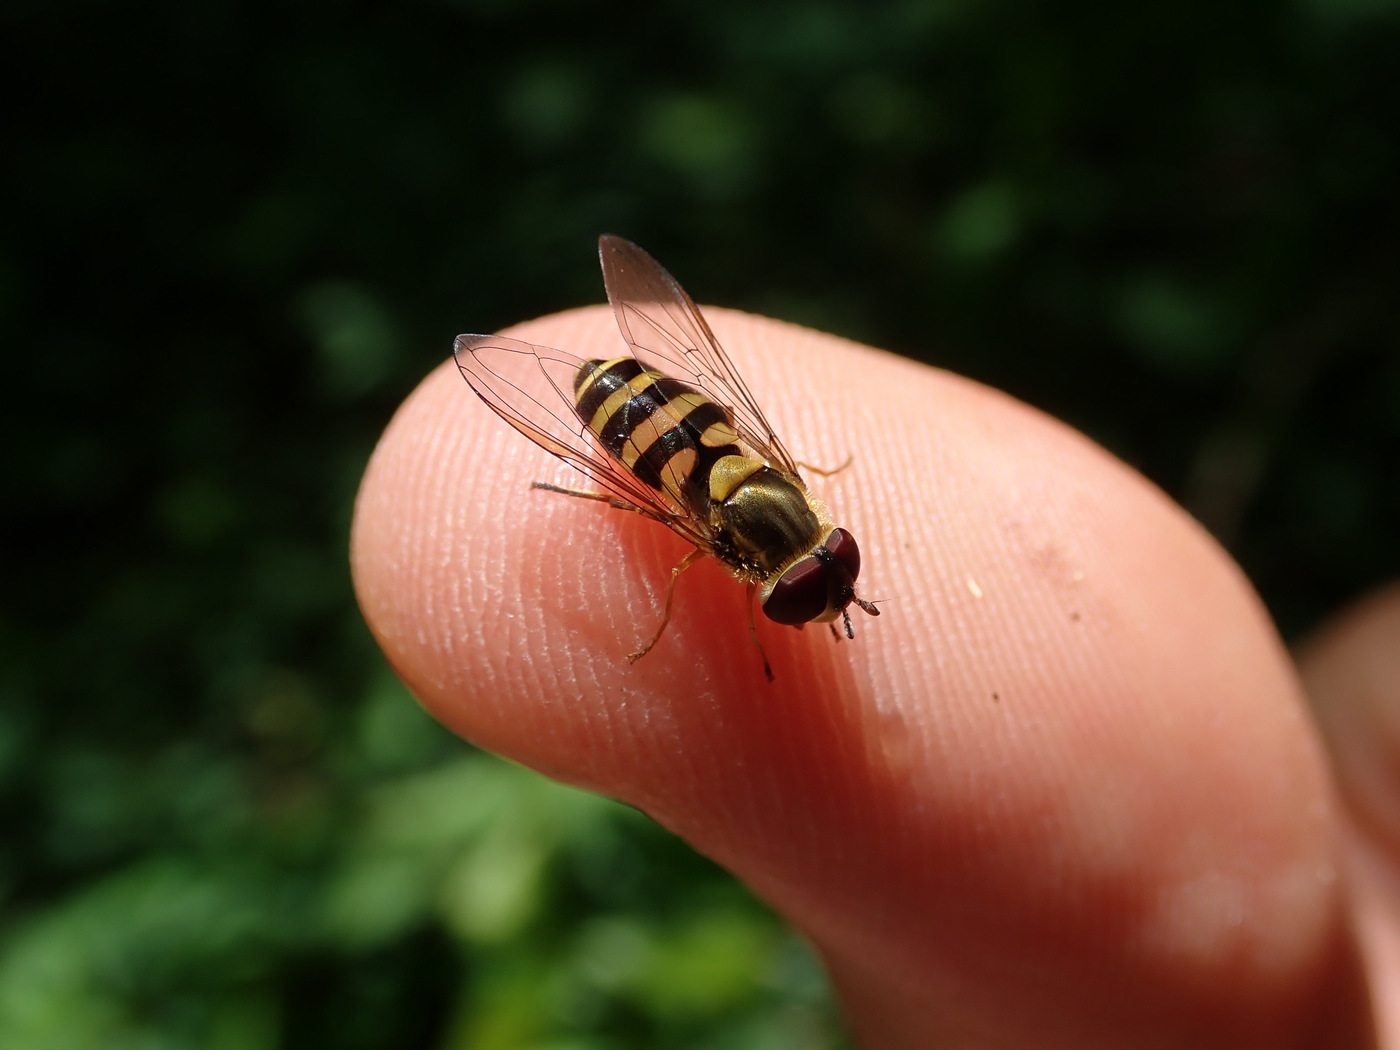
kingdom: Animalia
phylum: Arthropoda
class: Insecta
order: Diptera
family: Syrphidae
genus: Syrphus
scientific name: Syrphus rectus
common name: Yellow-legged flower fly
